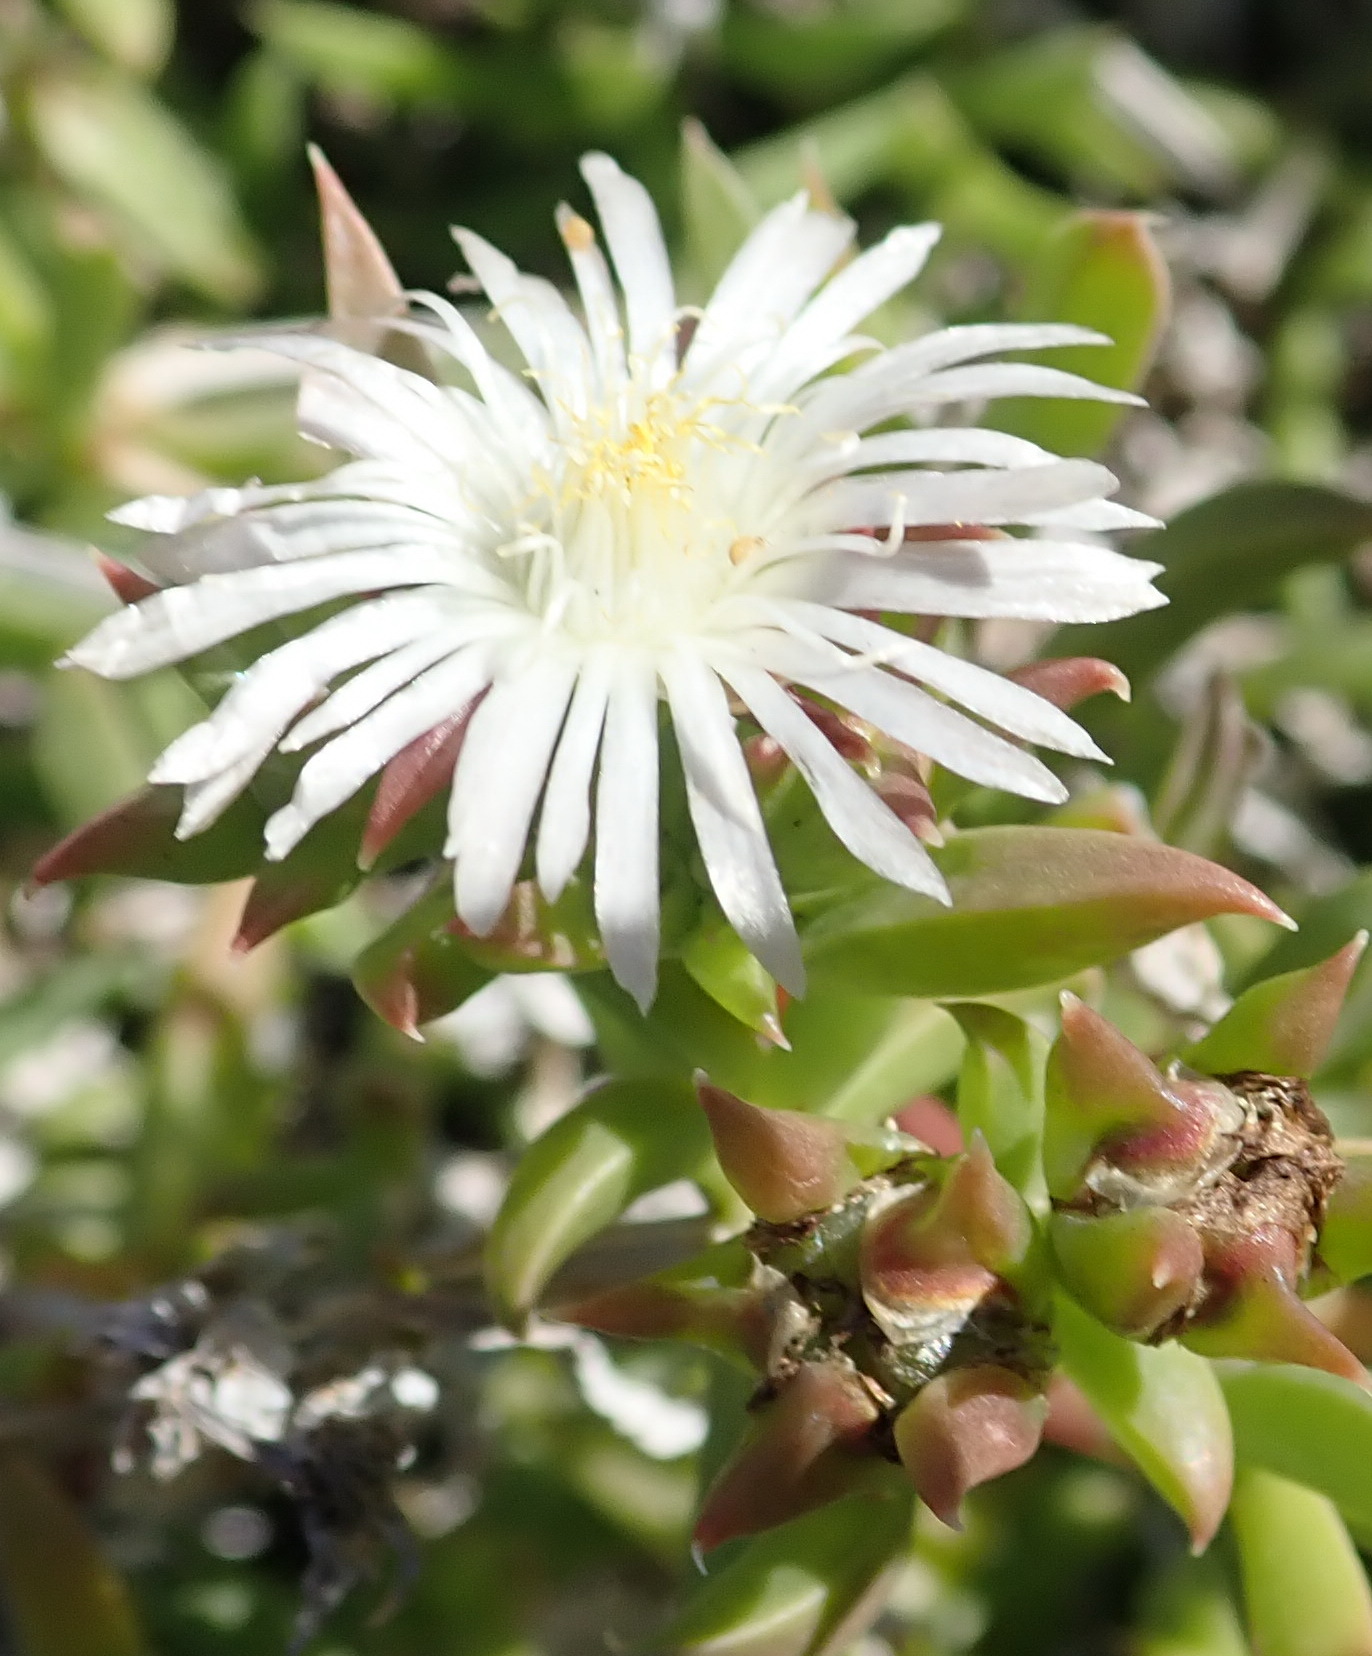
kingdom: Plantae
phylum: Tracheophyta
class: Magnoliopsida
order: Caryophyllales
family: Aizoaceae
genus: Delosperma
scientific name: Delosperma inconspicuum
